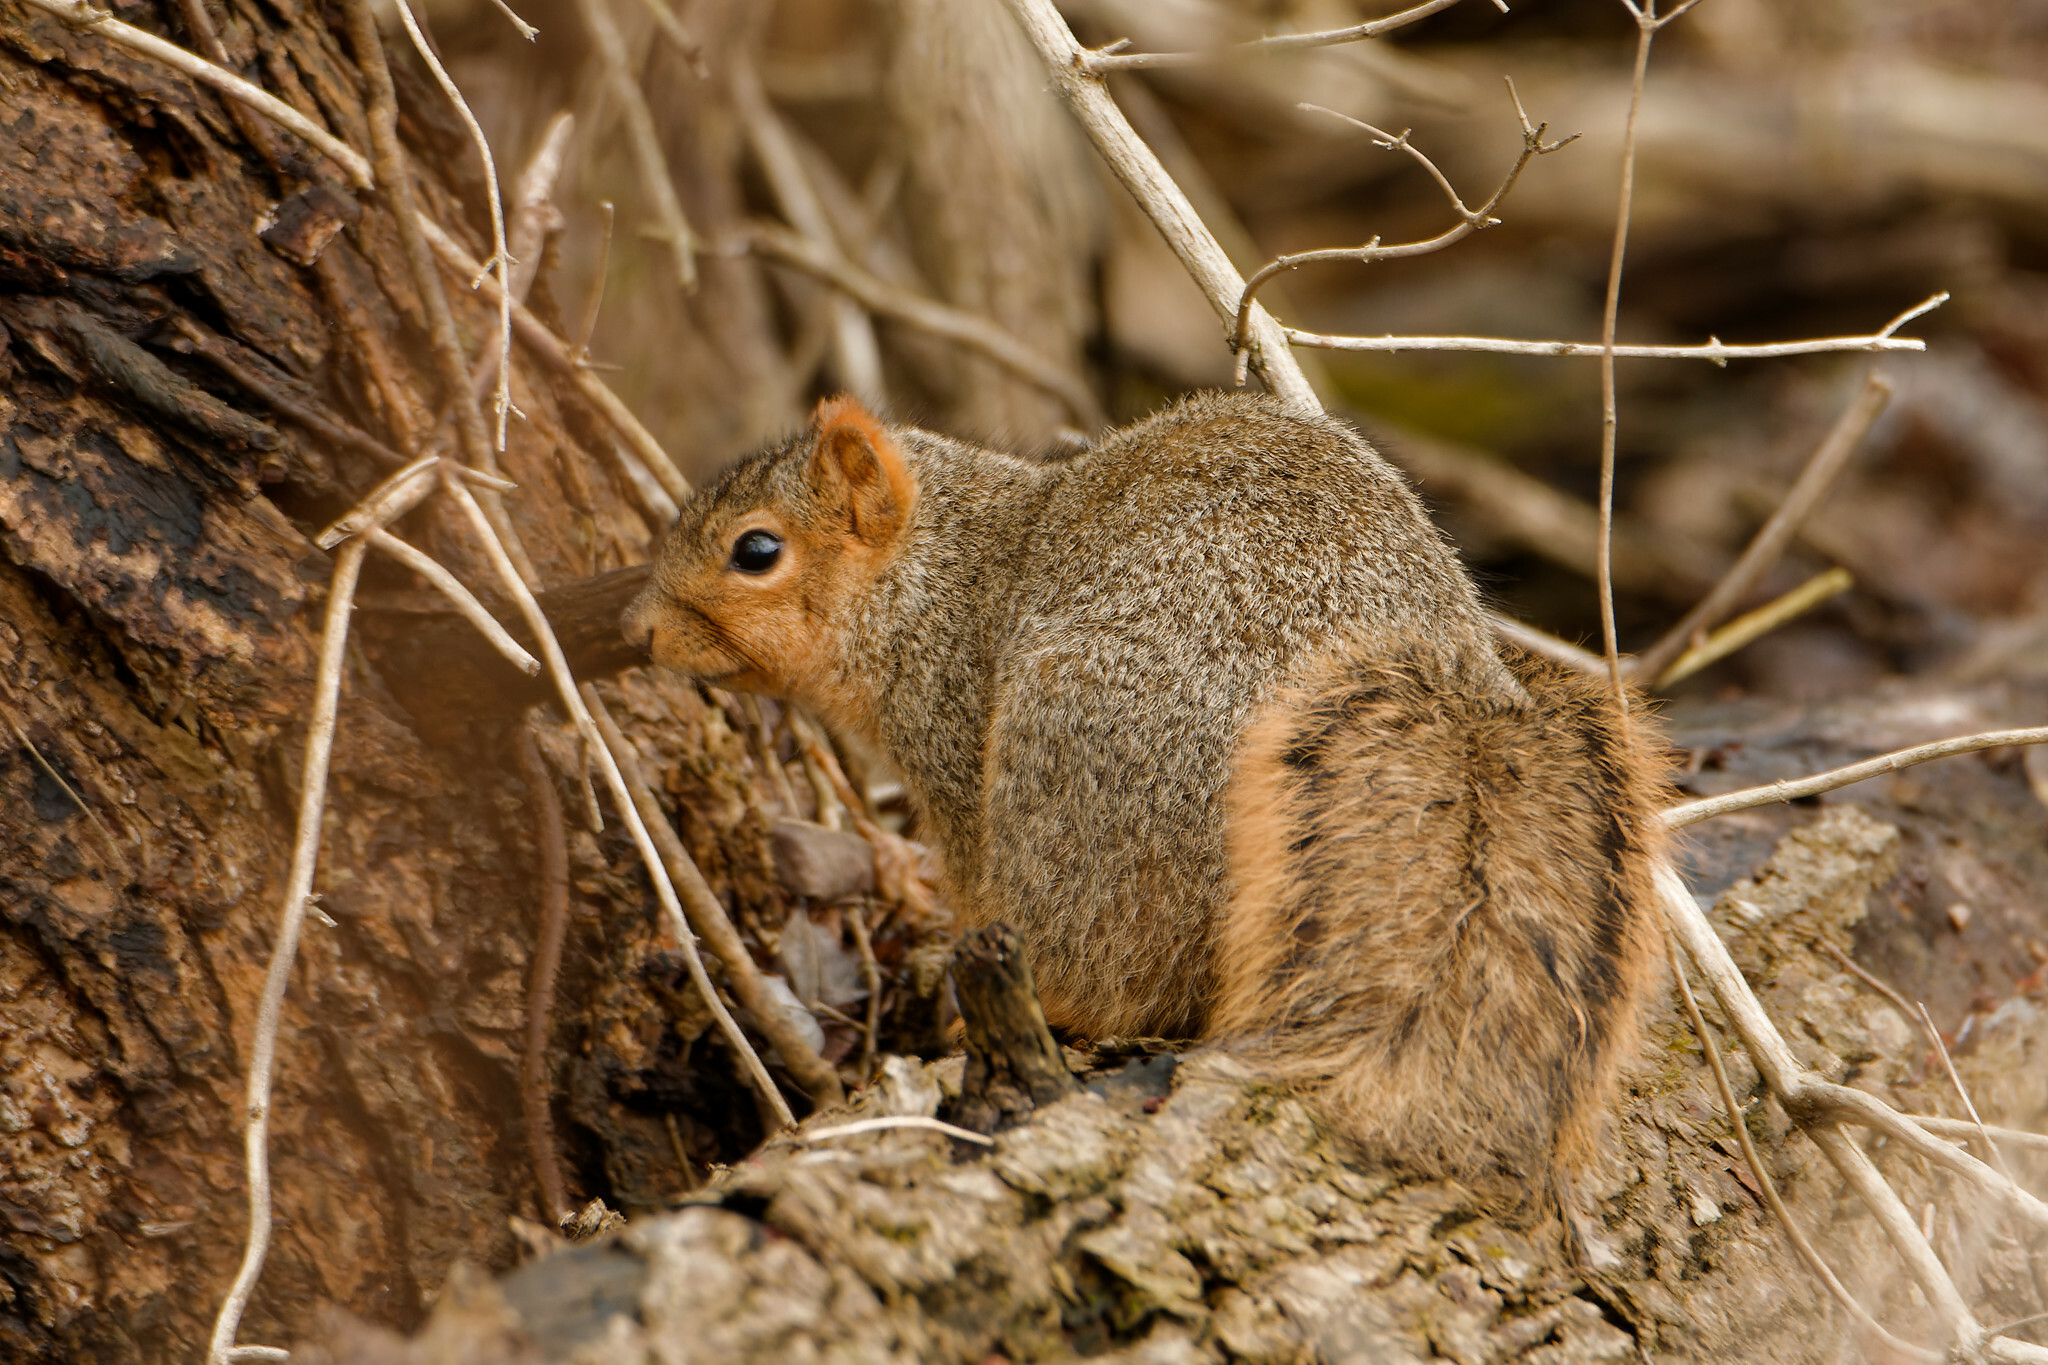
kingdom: Animalia
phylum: Chordata
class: Mammalia
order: Rodentia
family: Sciuridae
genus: Sciurus
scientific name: Sciurus niger
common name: Fox squirrel
